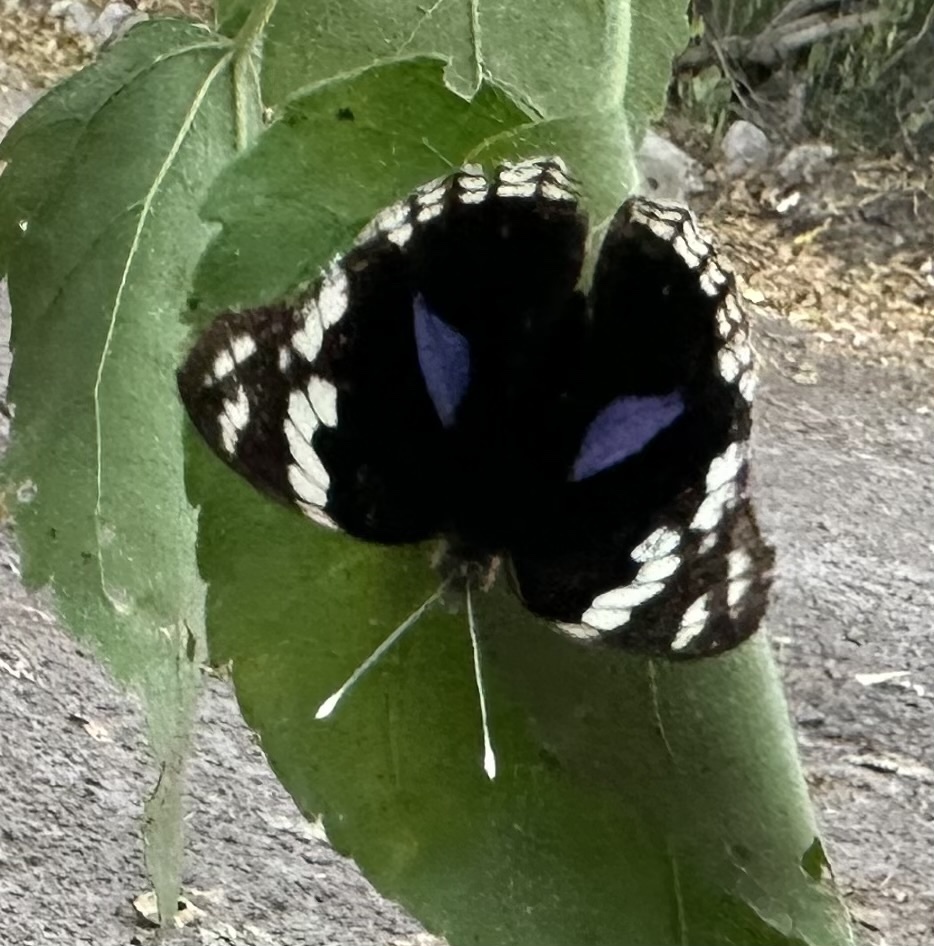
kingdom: Animalia
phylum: Arthropoda
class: Insecta
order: Lepidoptera
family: Nymphalidae
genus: Junonia
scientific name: Junonia oenone
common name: Dark blue pansy
